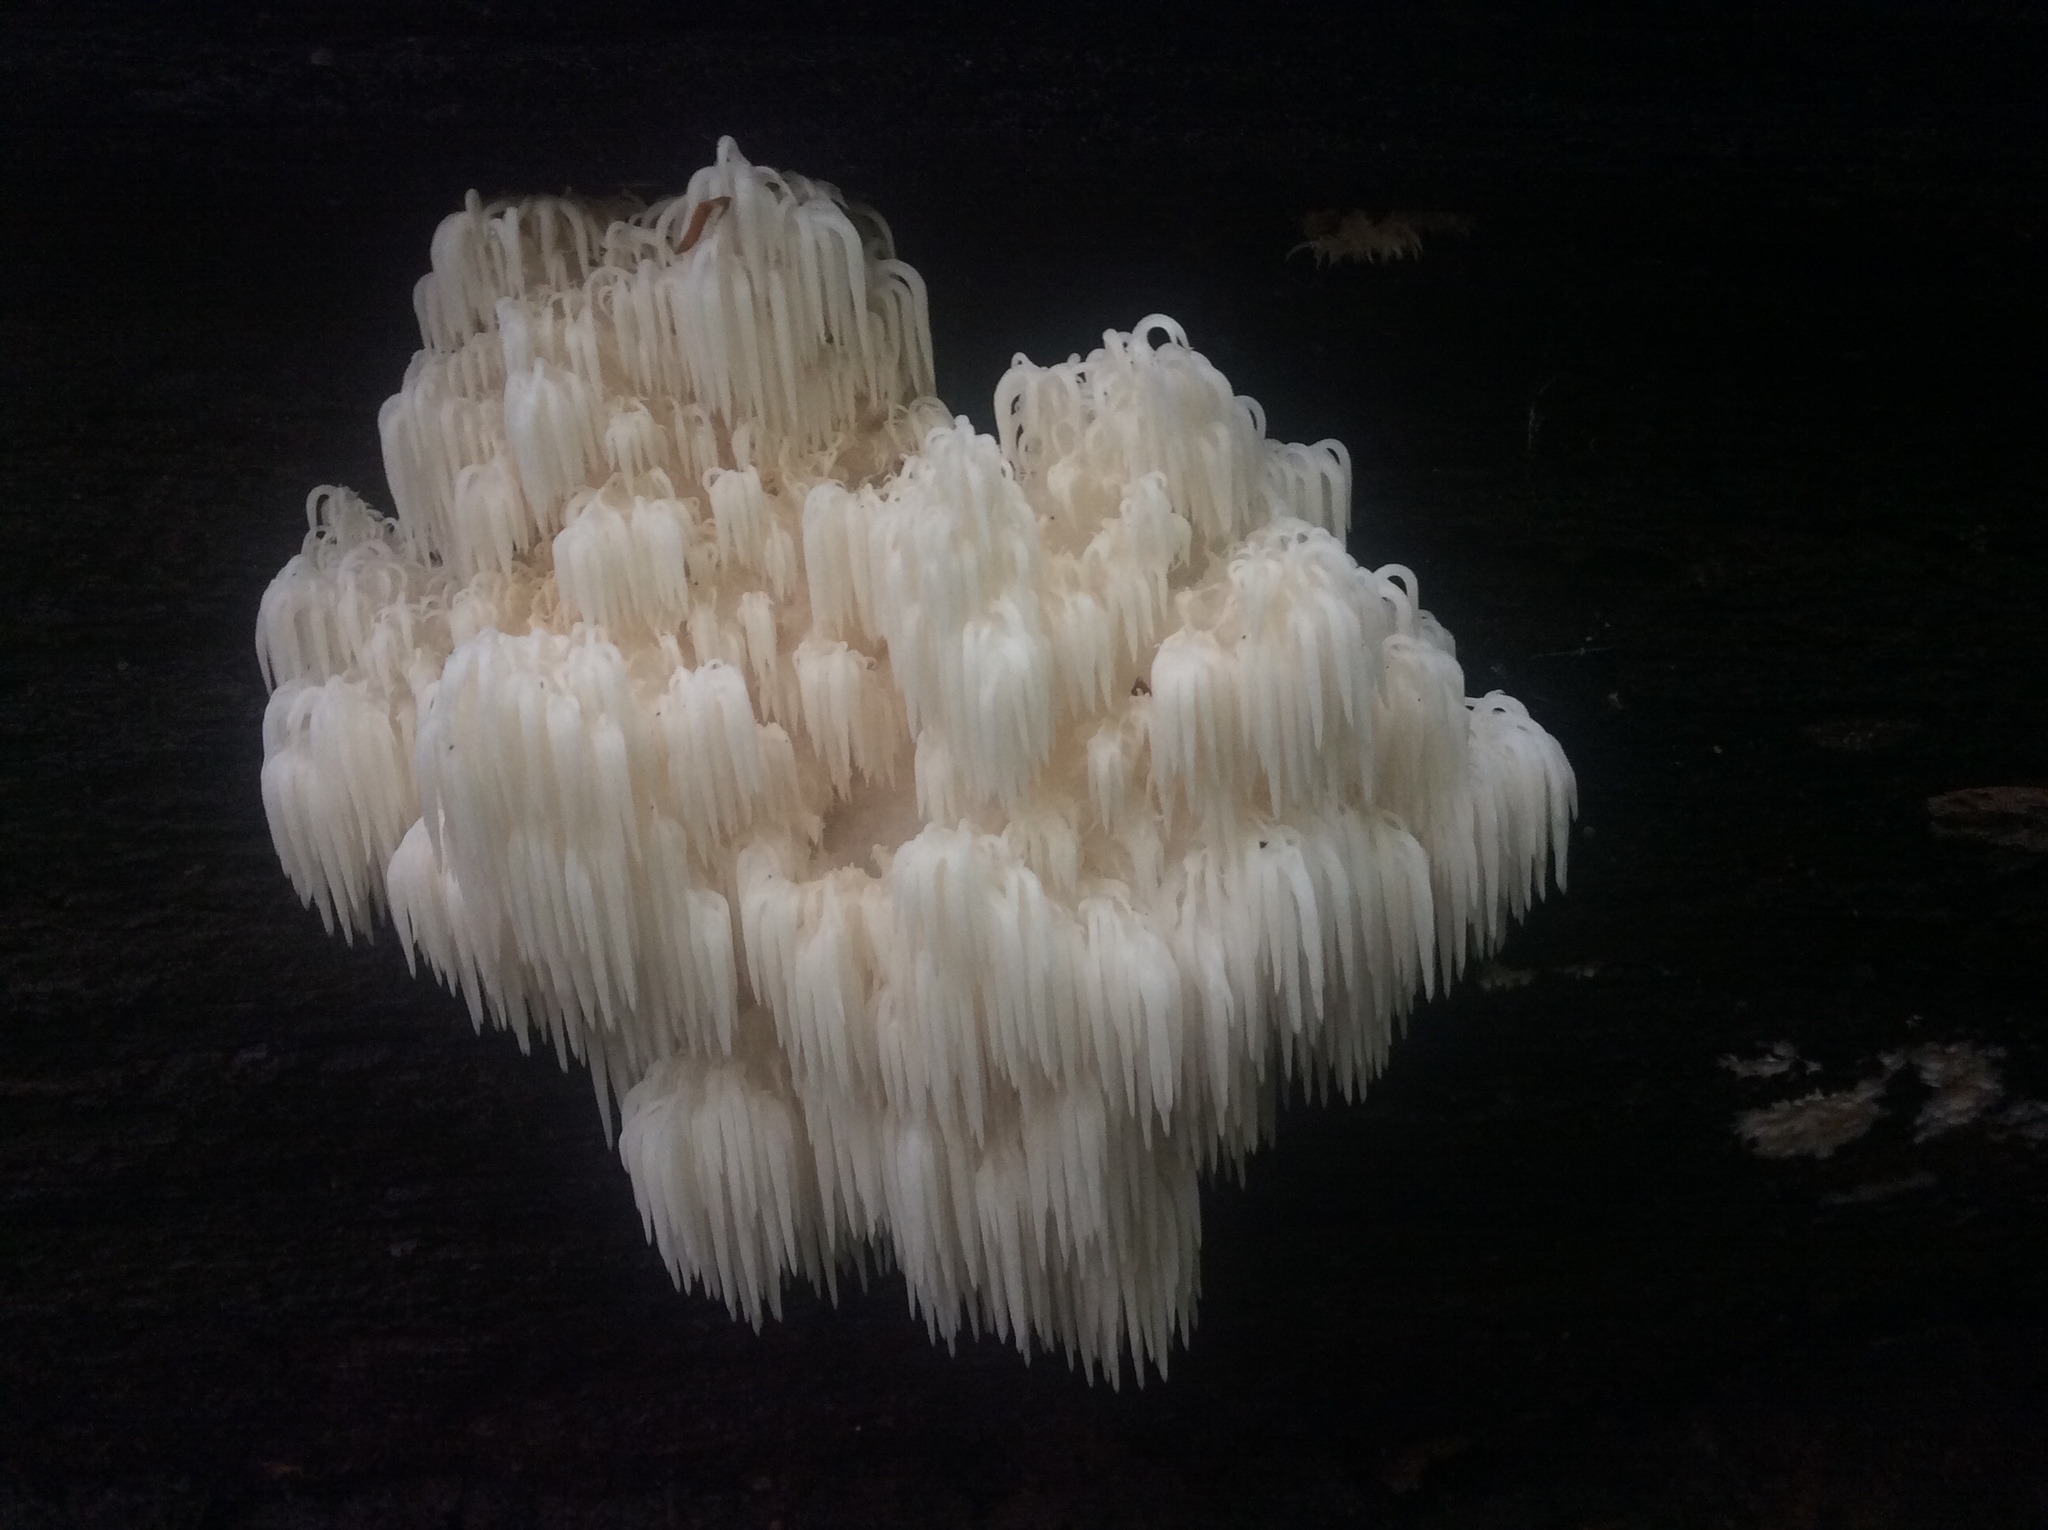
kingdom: Fungi
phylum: Basidiomycota
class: Agaricomycetes
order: Russulales
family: Hericiaceae
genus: Hericium
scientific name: Hericium americanum
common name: Bear's head tooth
